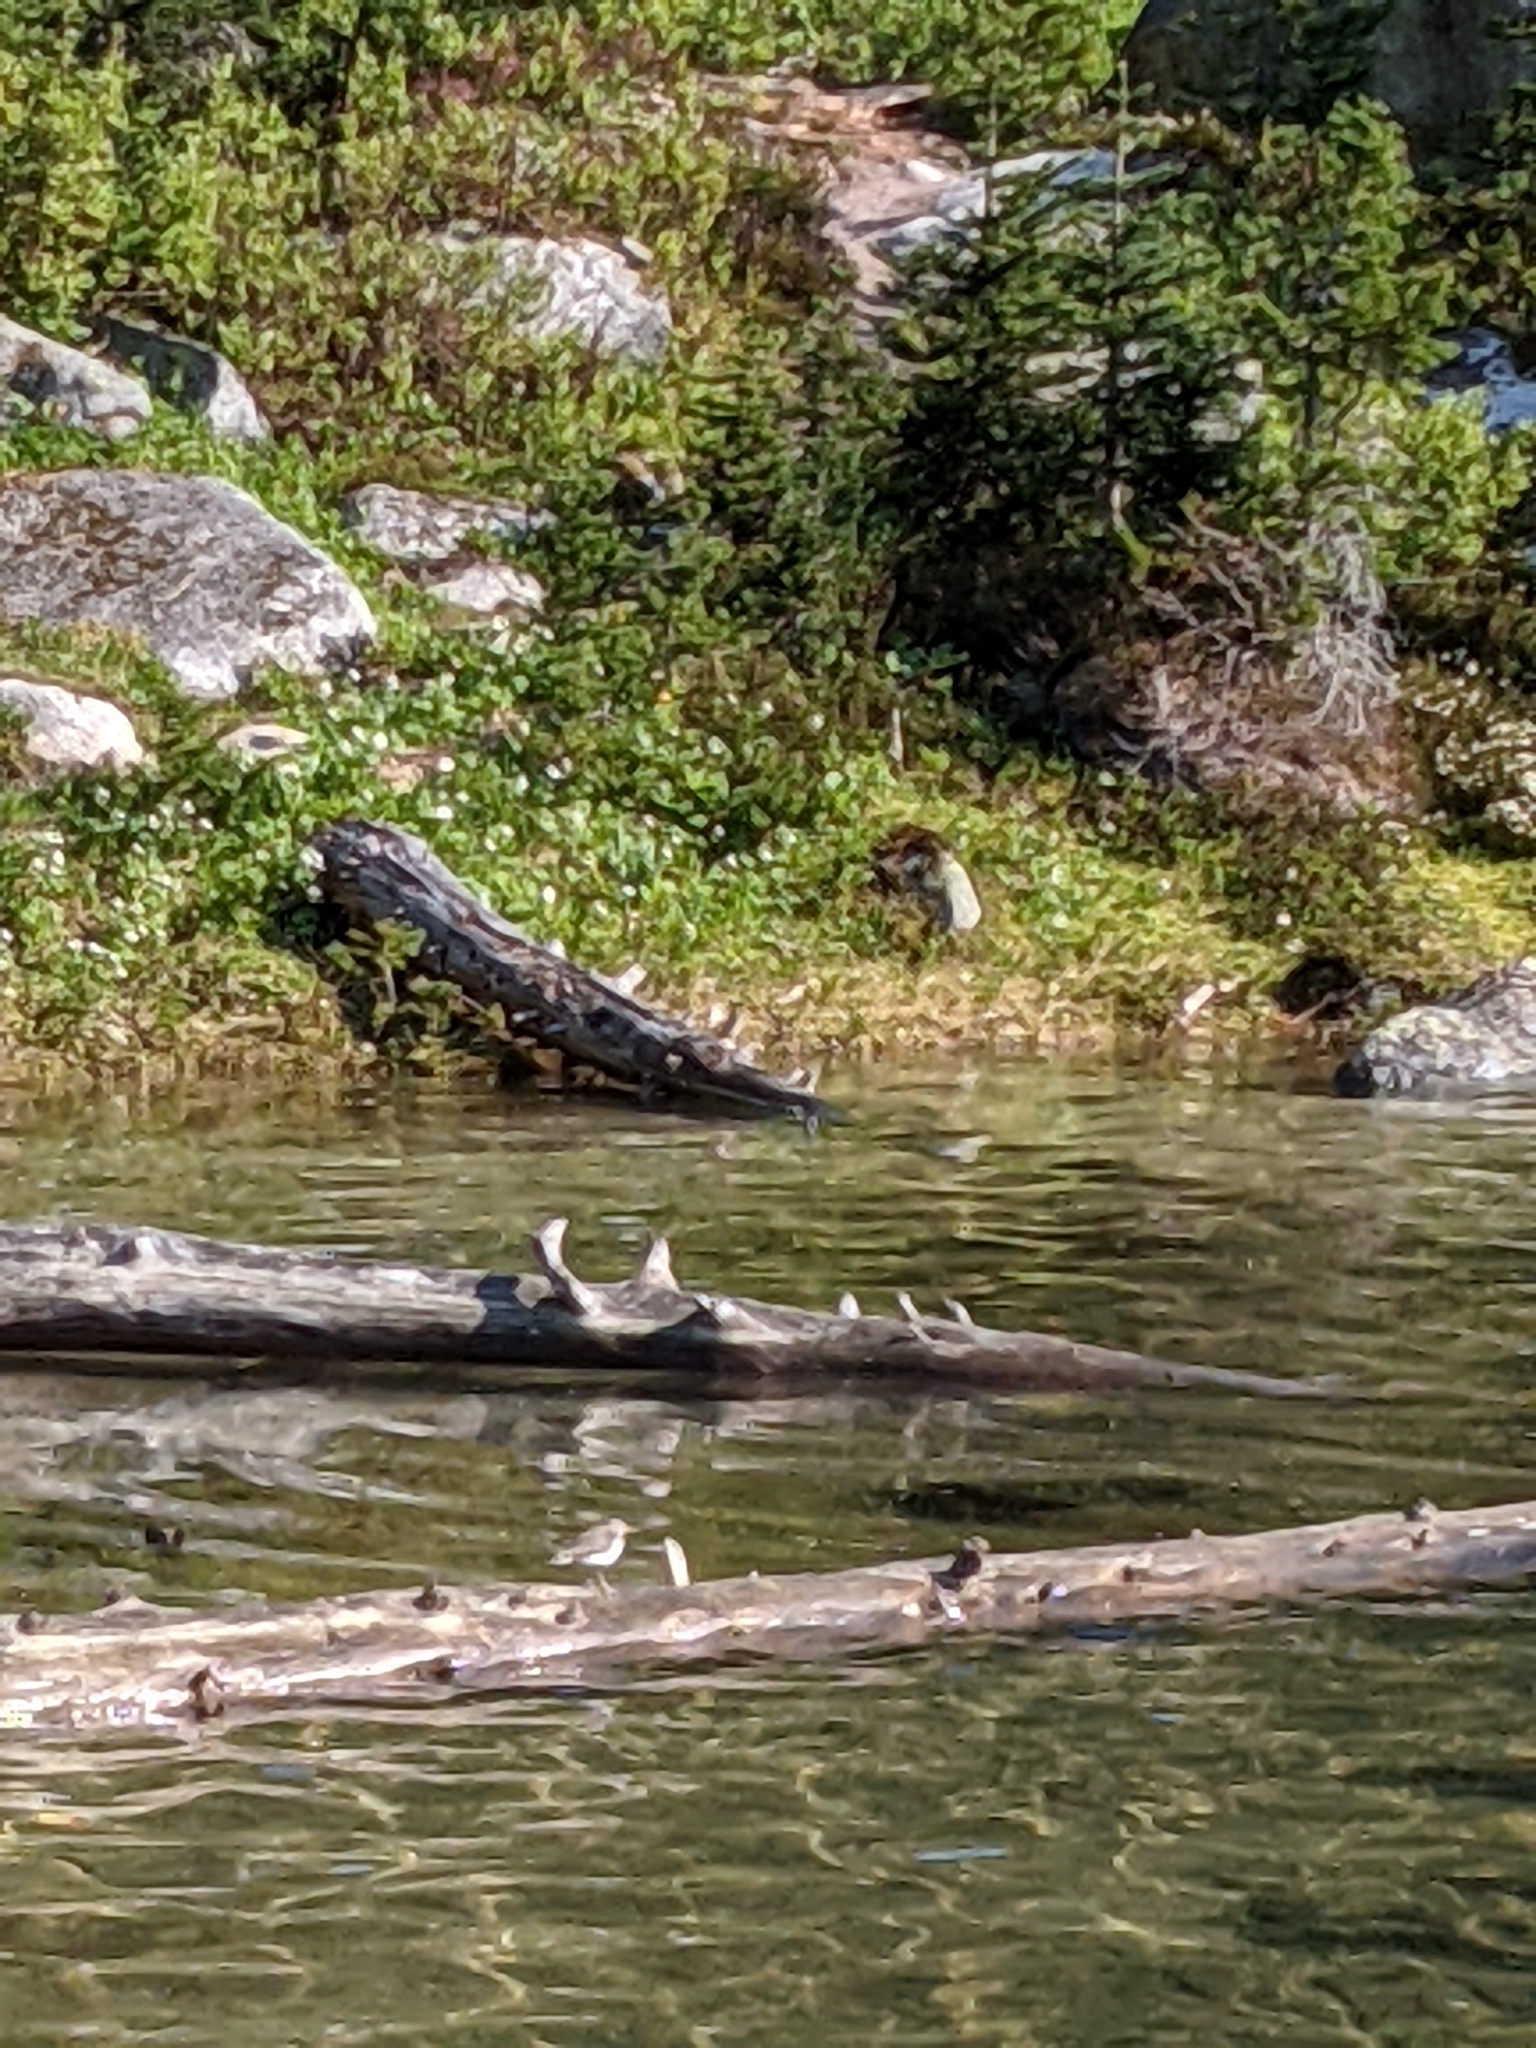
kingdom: Animalia
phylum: Chordata
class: Aves
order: Charadriiformes
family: Scolopacidae
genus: Actitis
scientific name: Actitis macularius
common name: Spotted sandpiper
